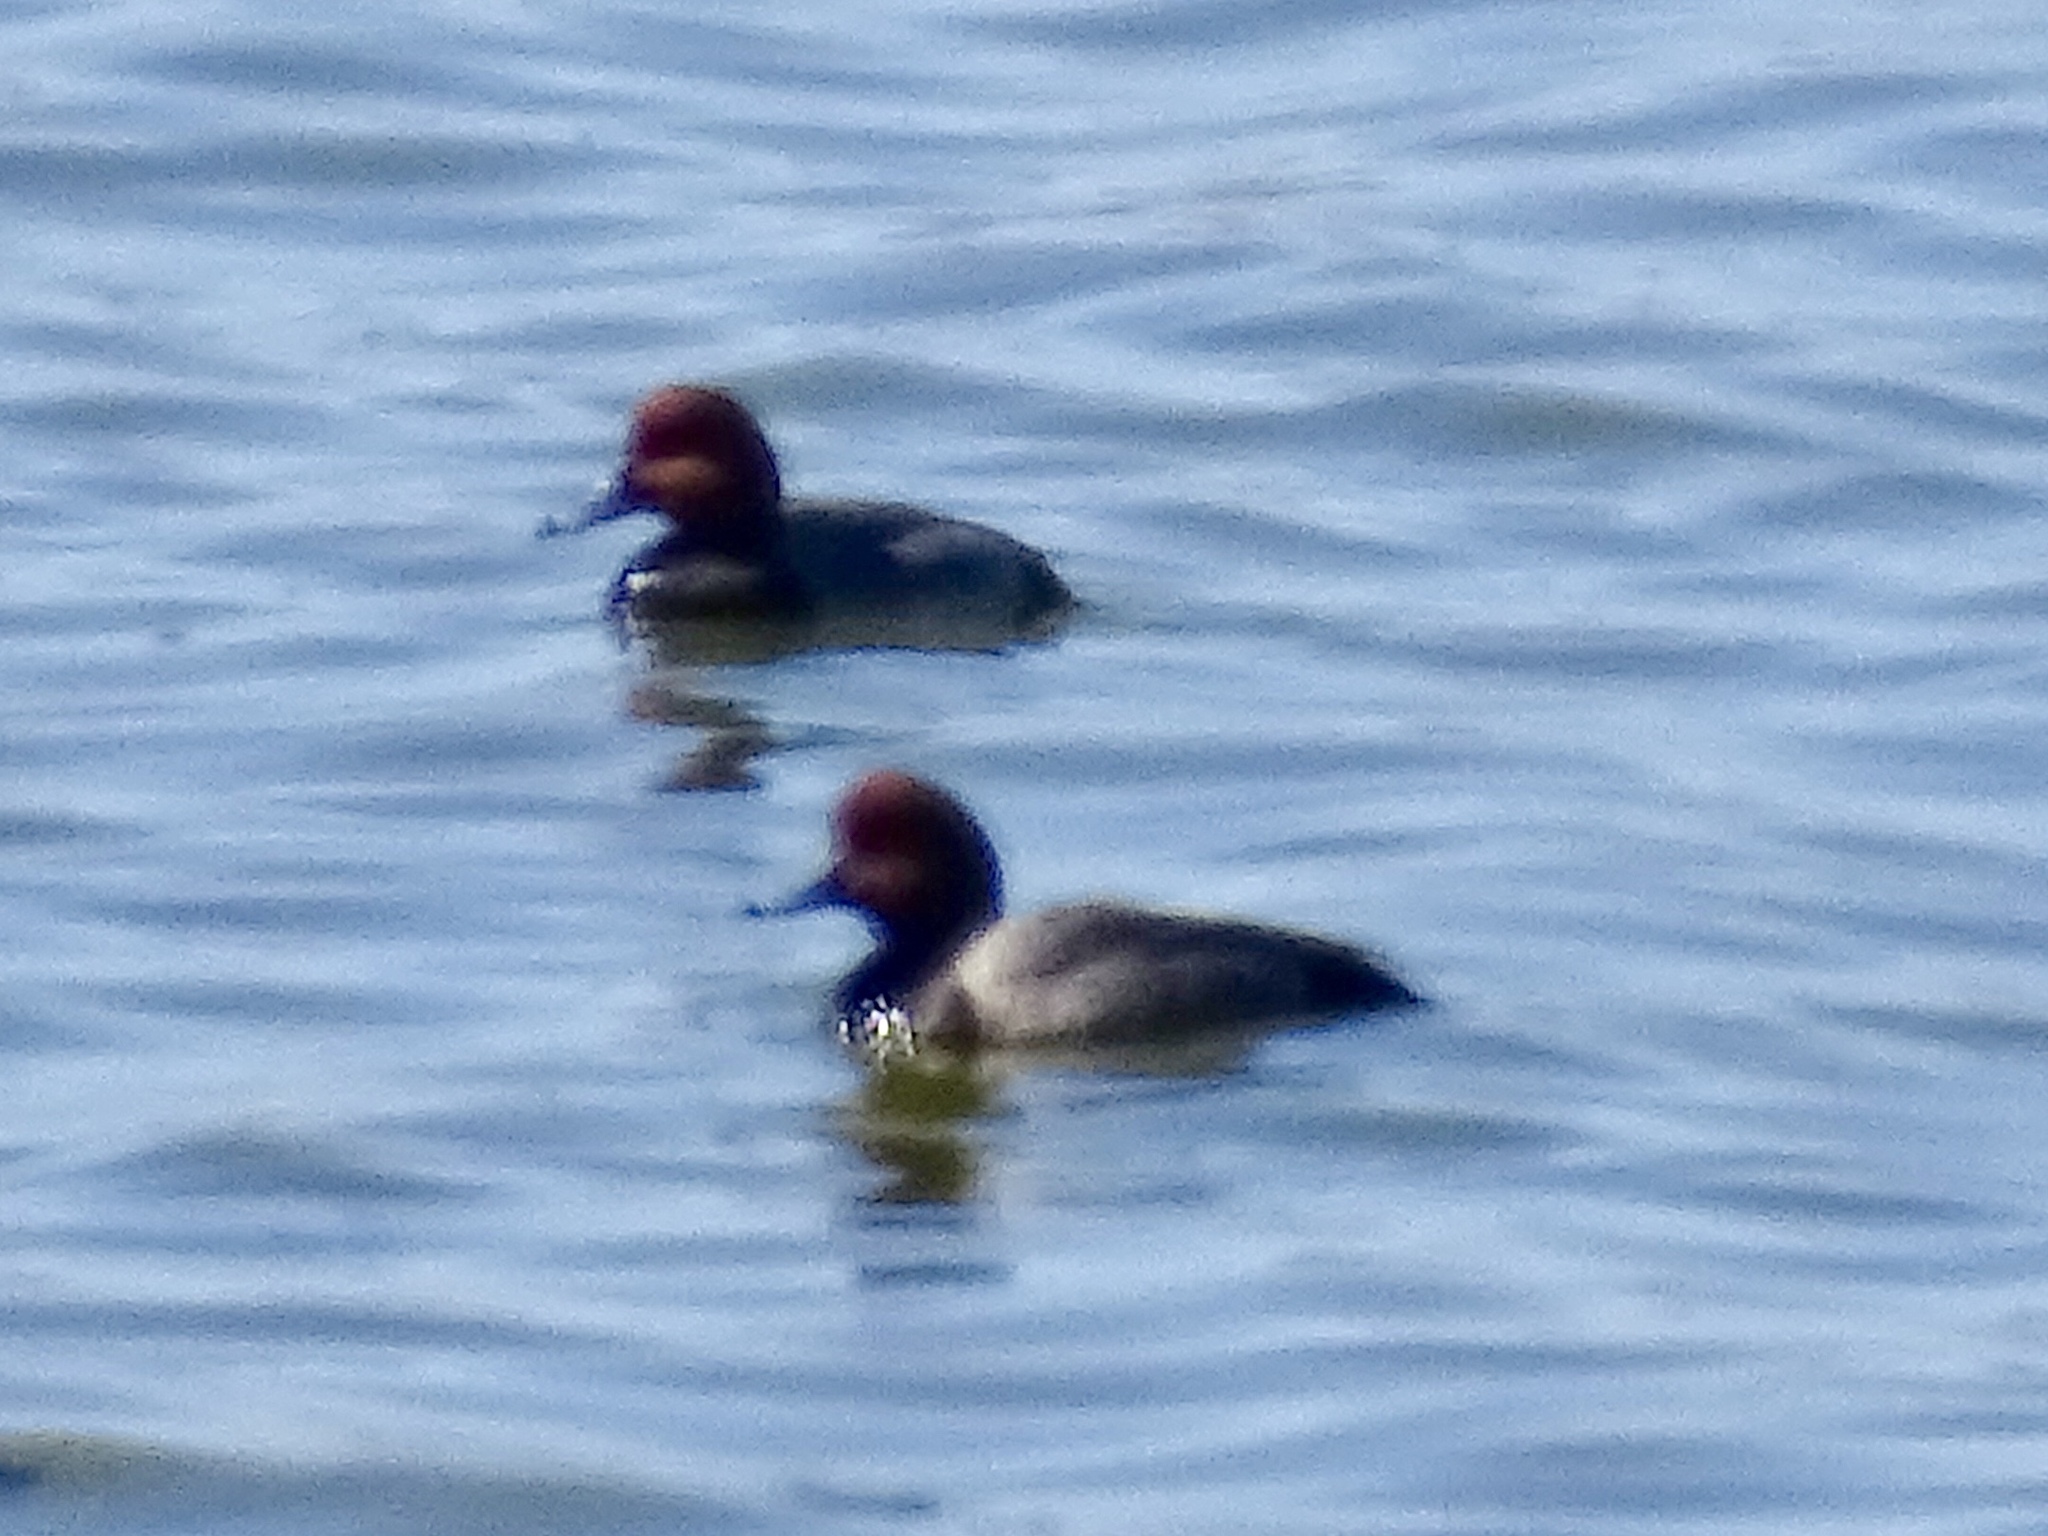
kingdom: Animalia
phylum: Chordata
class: Aves
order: Anseriformes
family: Anatidae
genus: Aythya
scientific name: Aythya americana
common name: Redhead
